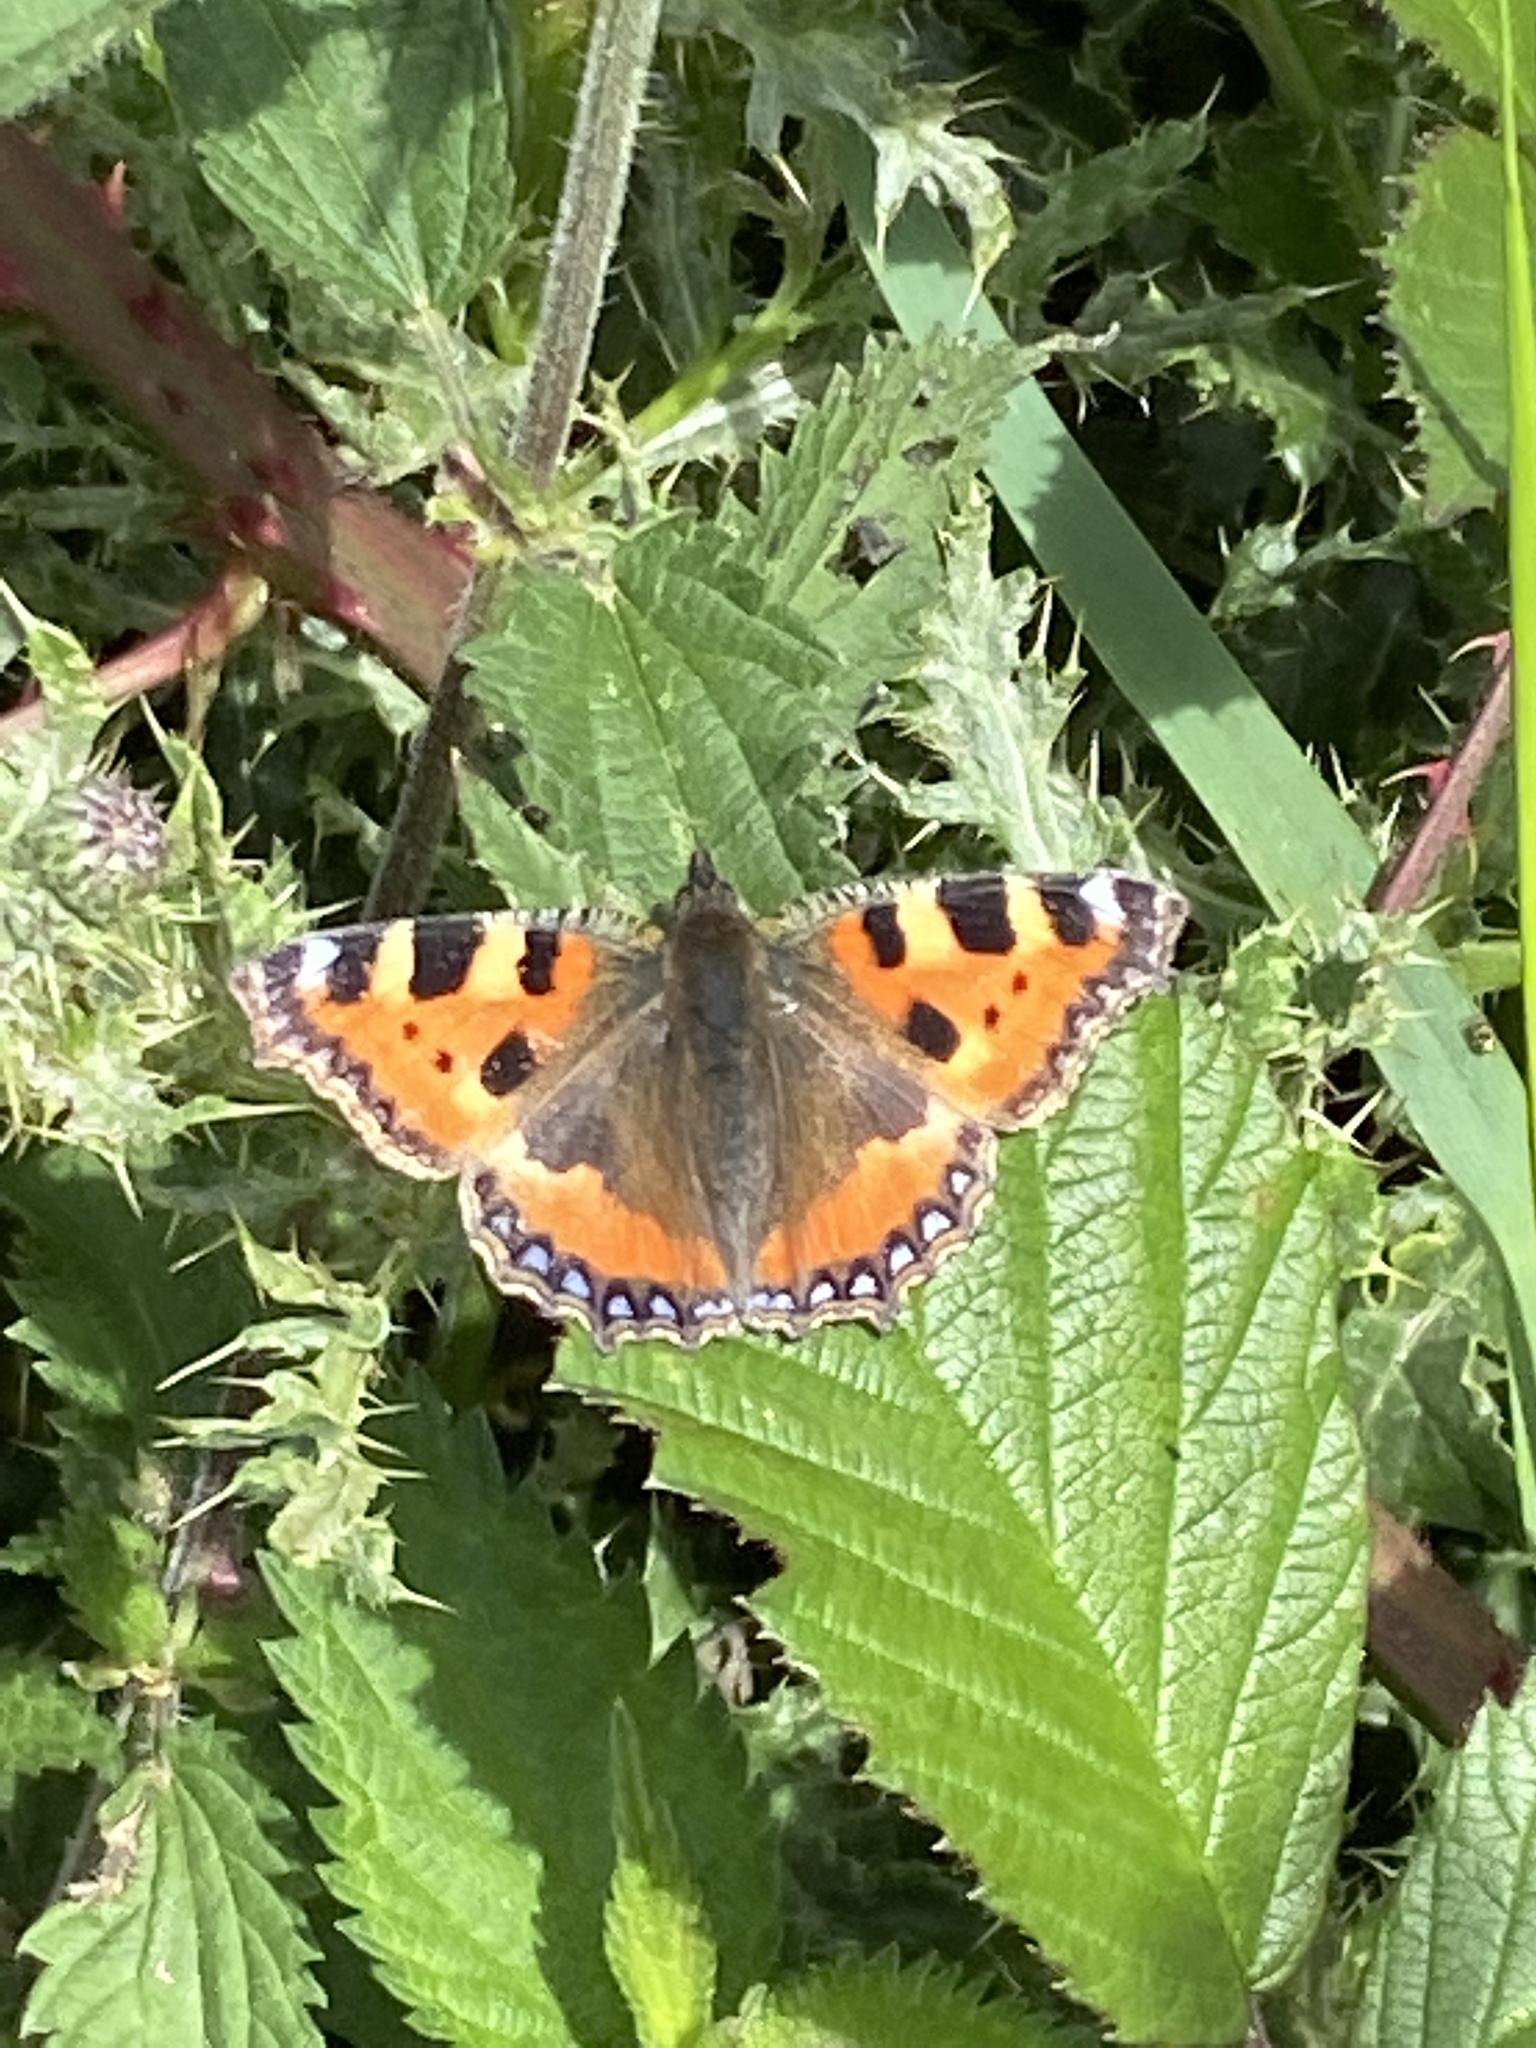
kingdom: Animalia
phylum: Arthropoda
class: Insecta
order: Lepidoptera
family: Nymphalidae
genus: Aglais
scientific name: Aglais urticae
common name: Small tortoiseshell
